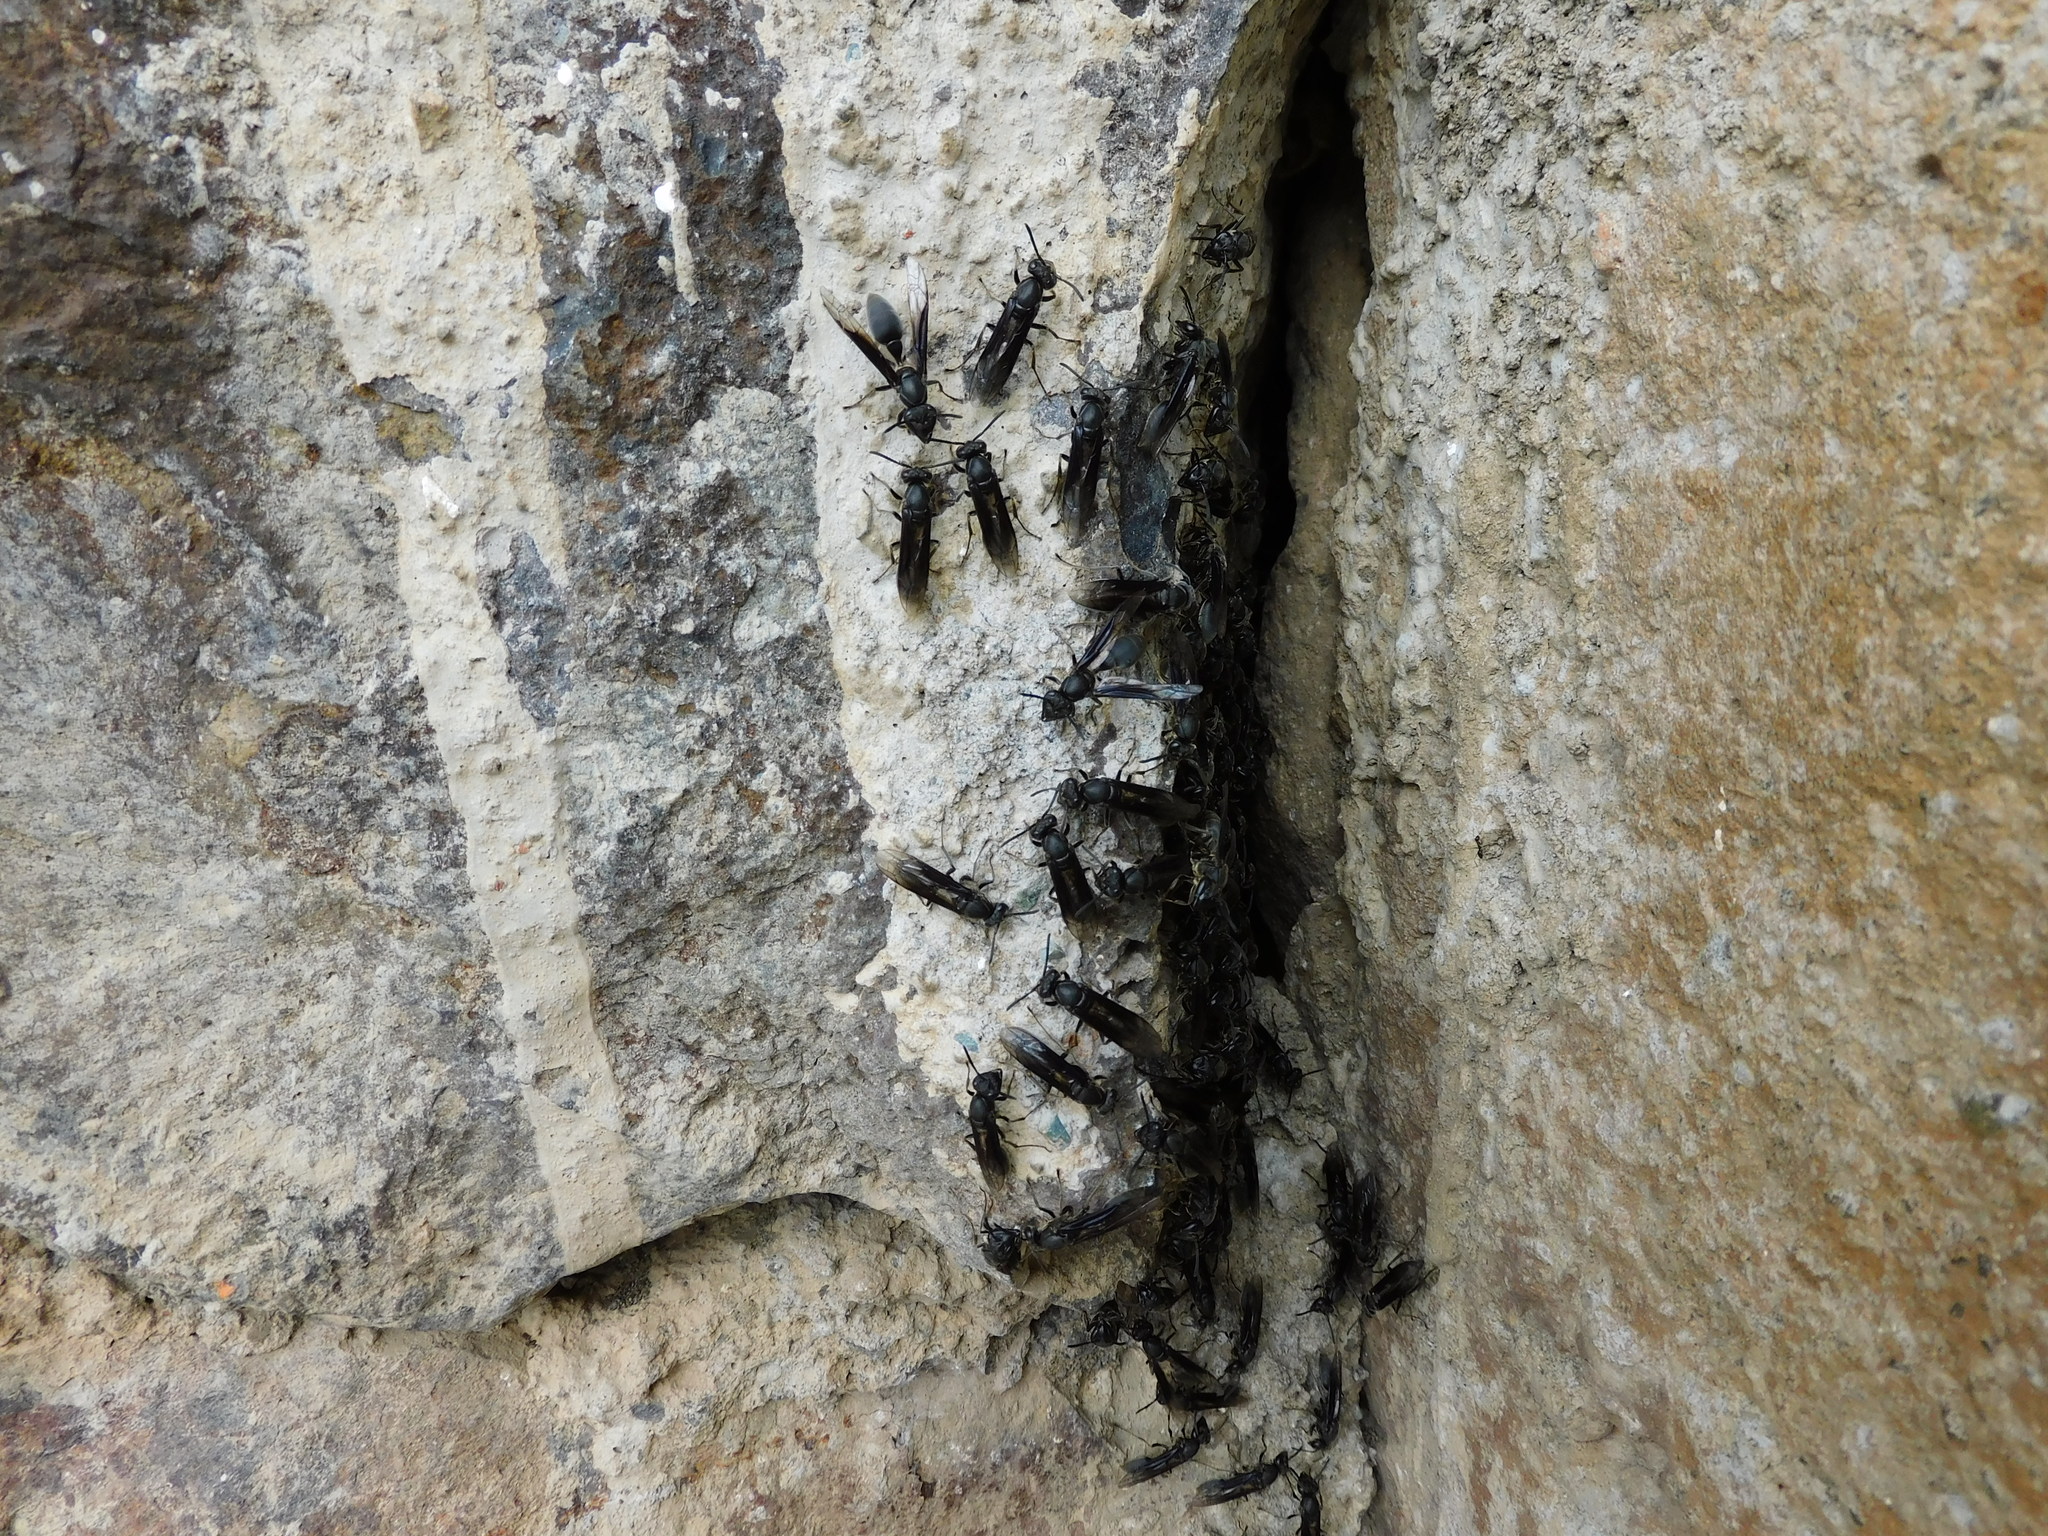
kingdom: Animalia
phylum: Arthropoda
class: Insecta
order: Hymenoptera
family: Eumenidae
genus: Polybia
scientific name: Polybia ignobilis
